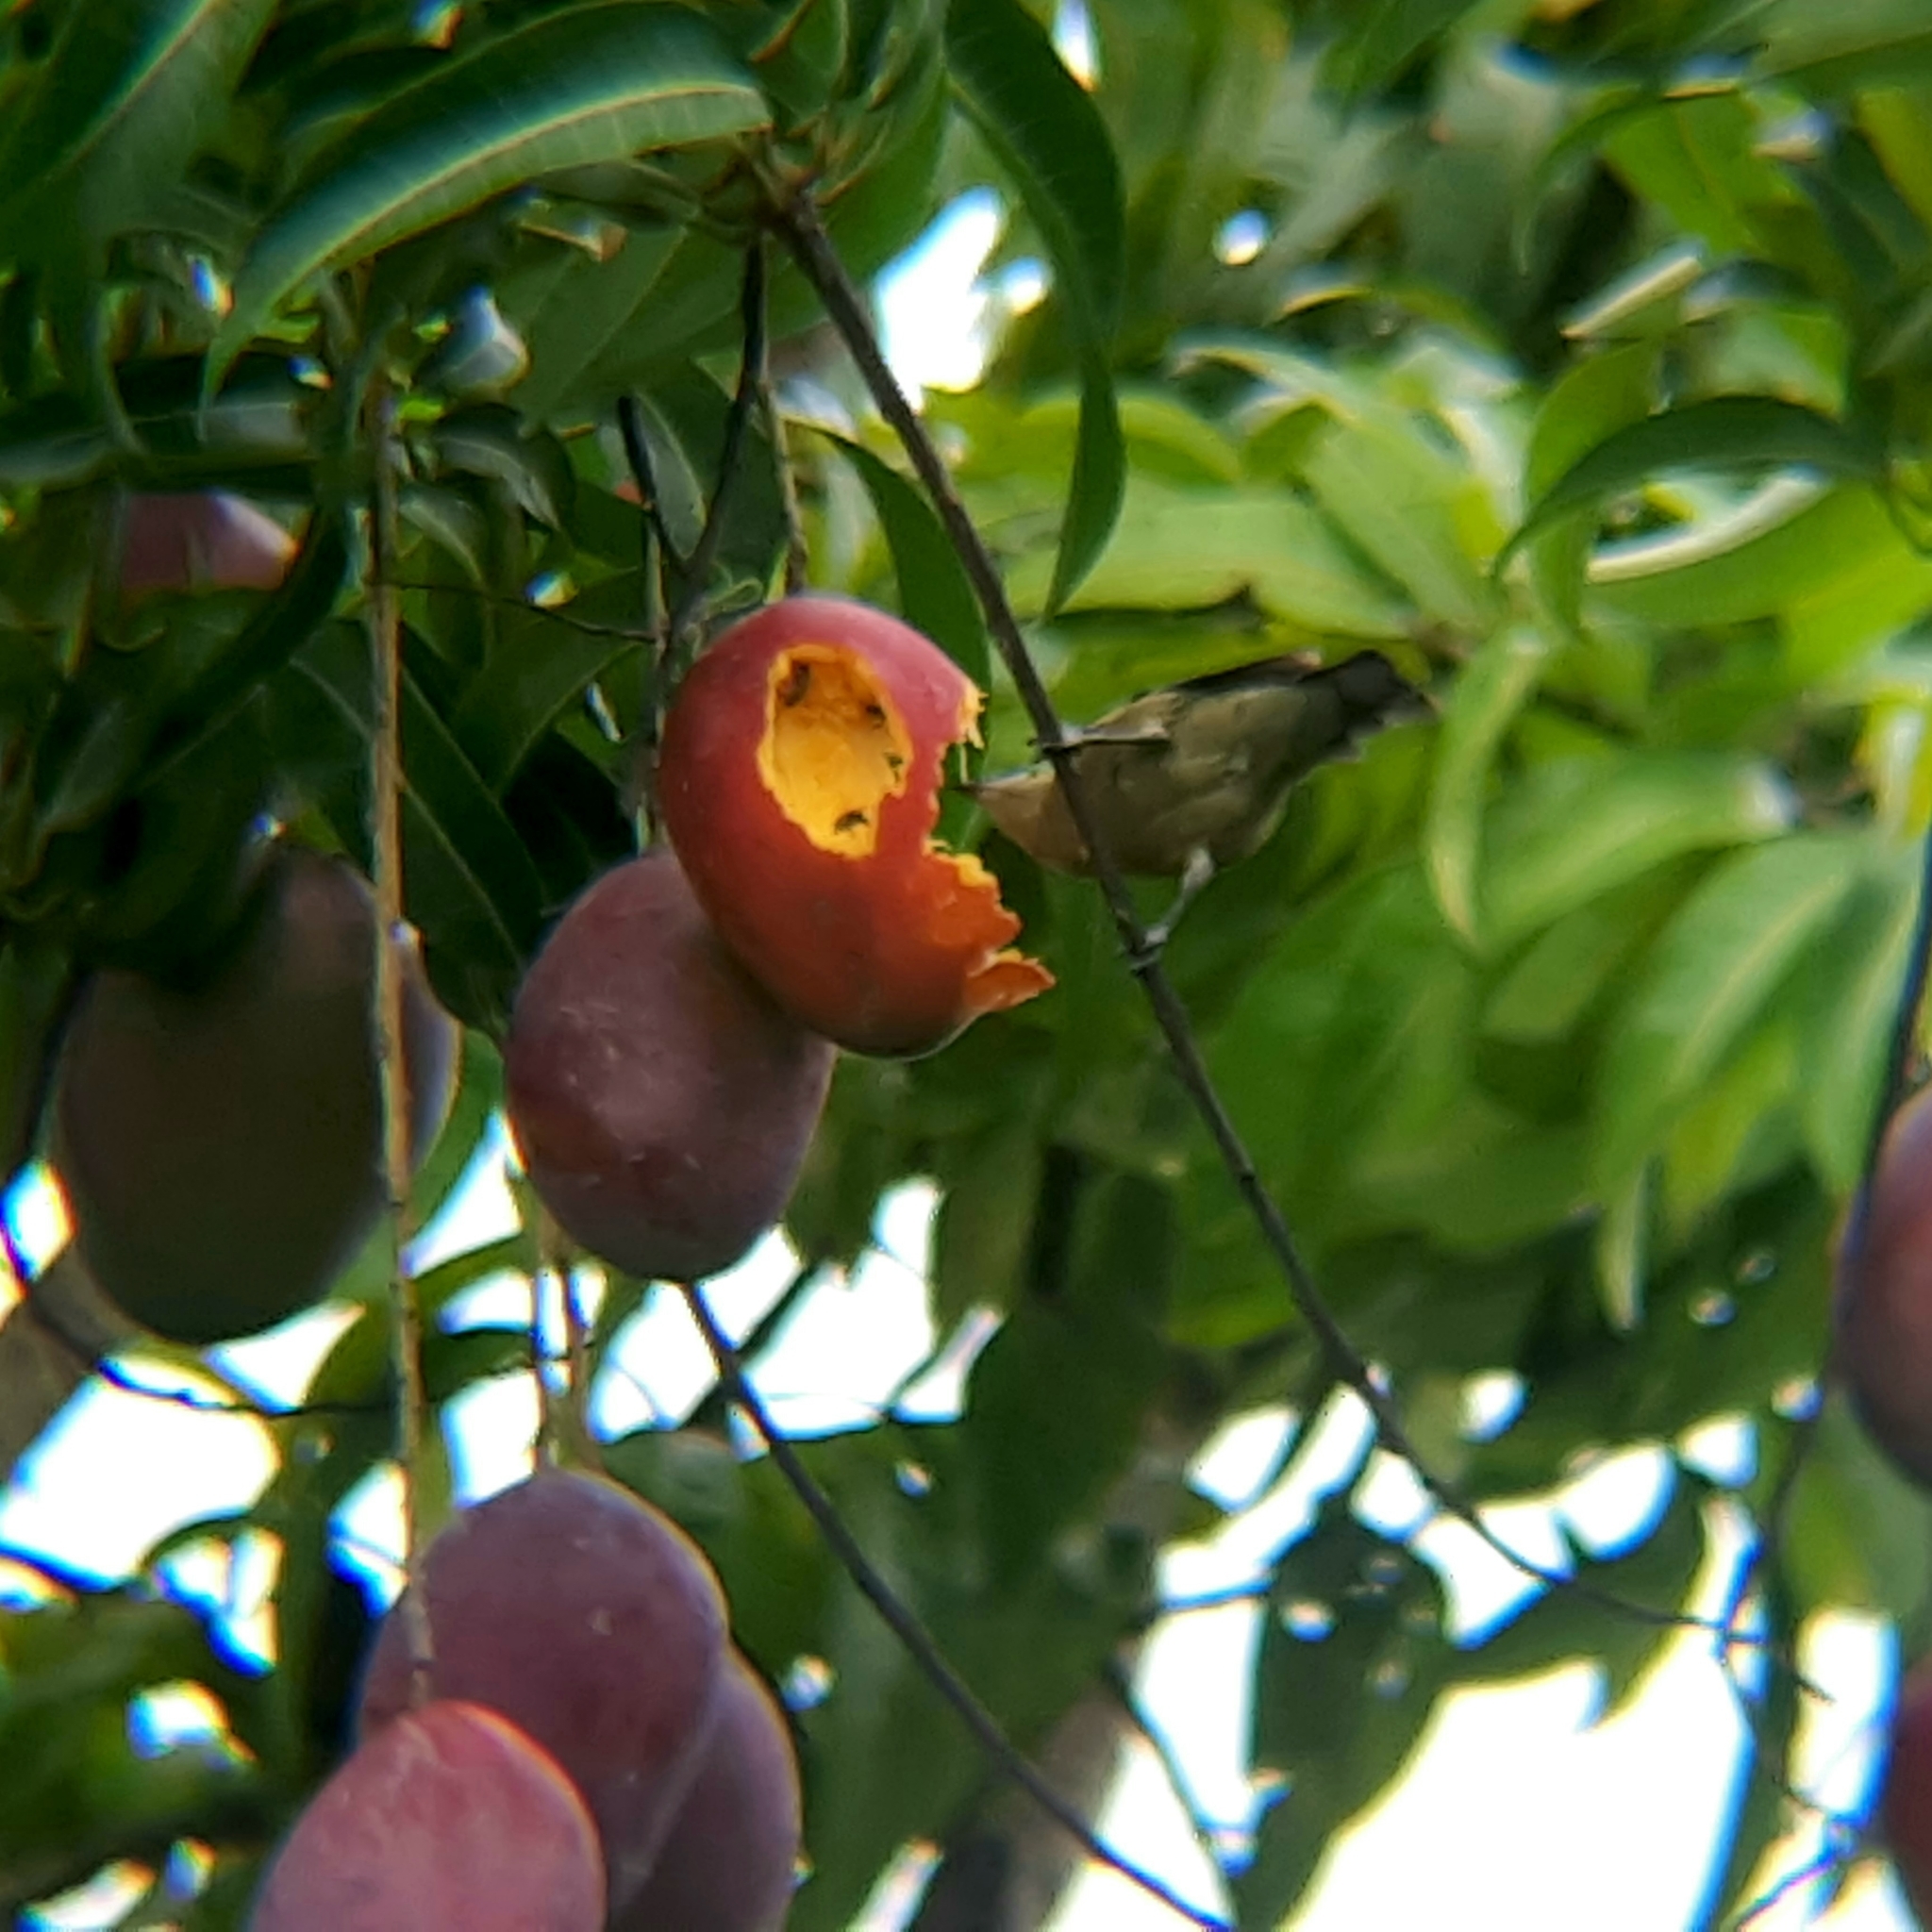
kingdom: Animalia
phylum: Chordata
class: Aves
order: Passeriformes
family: Thraupidae
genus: Thraupis
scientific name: Thraupis palmarum
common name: Palm tanager
